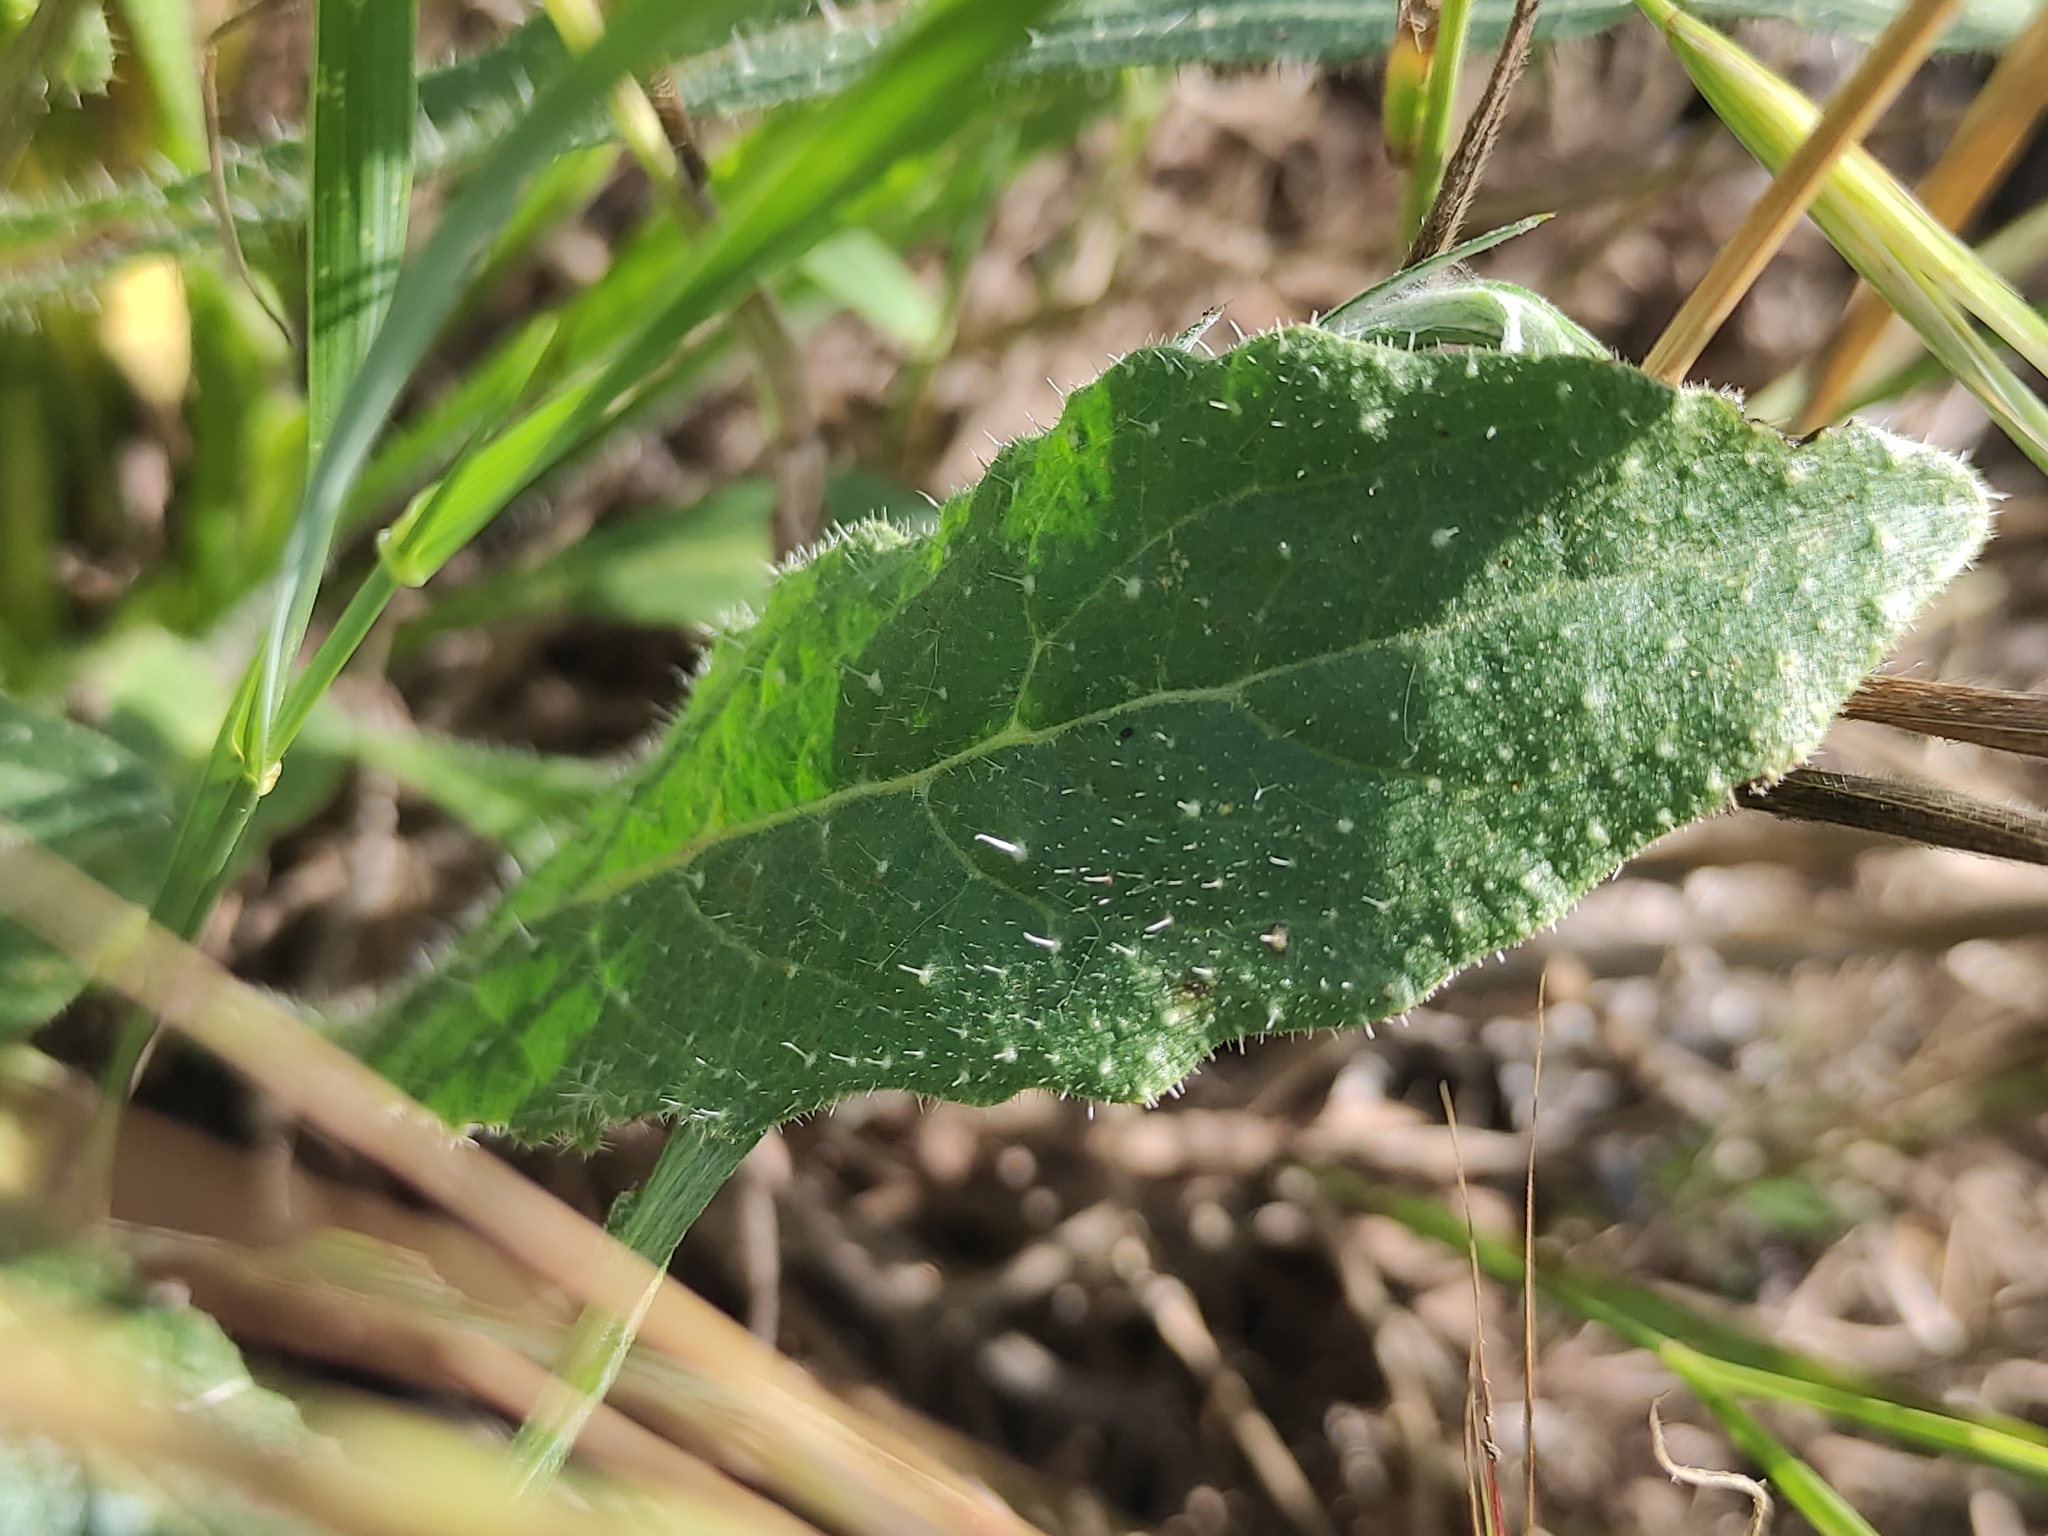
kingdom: Plantae
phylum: Tracheophyta
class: Magnoliopsida
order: Asterales
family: Asteraceae
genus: Helminthotheca
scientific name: Helminthotheca echioides
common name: Ox-tongue
